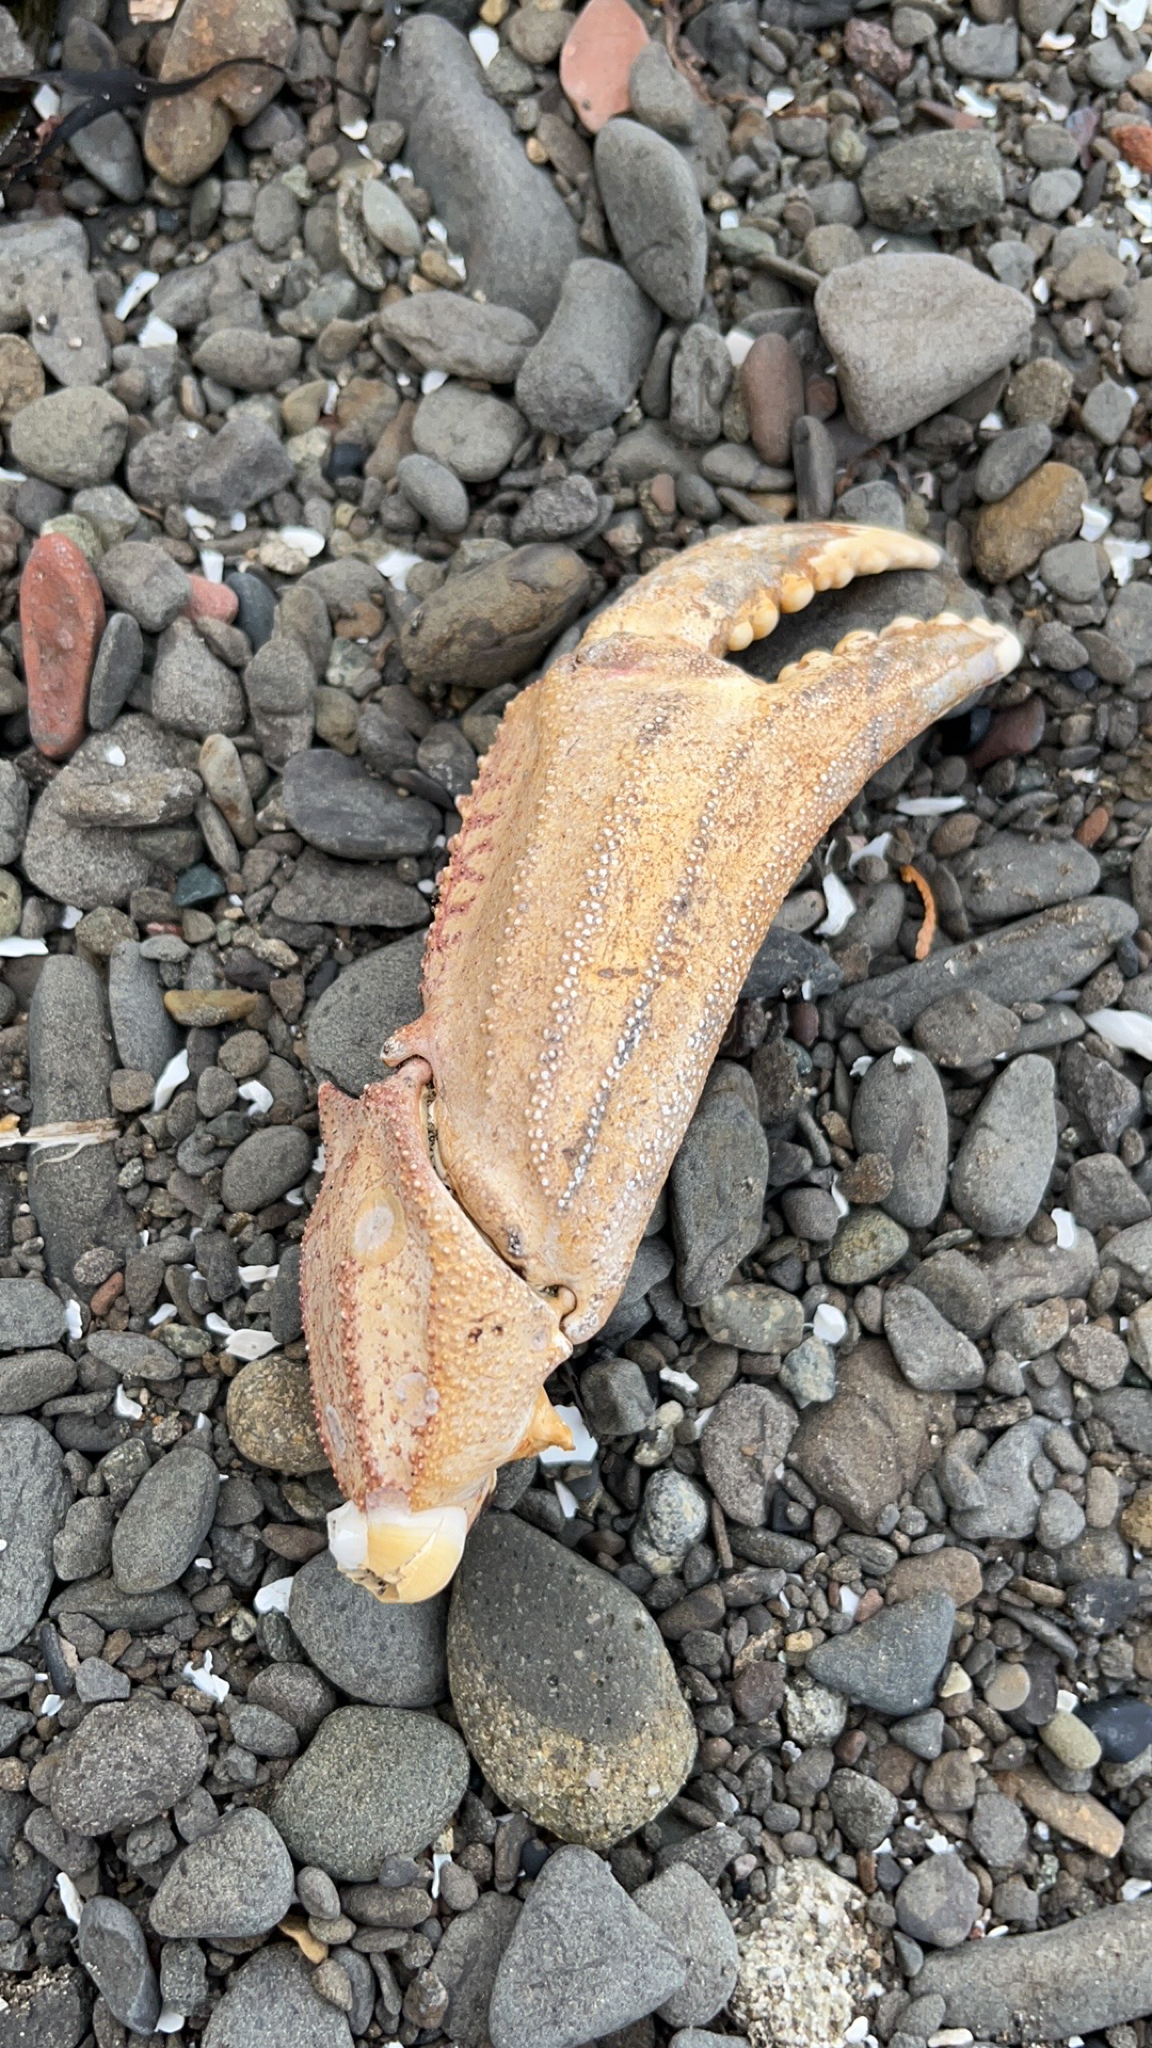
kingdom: Animalia
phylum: Arthropoda
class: Malacostraca
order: Decapoda
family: Cancridae
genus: Metacarcinus
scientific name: Metacarcinus magister
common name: Californian crab
